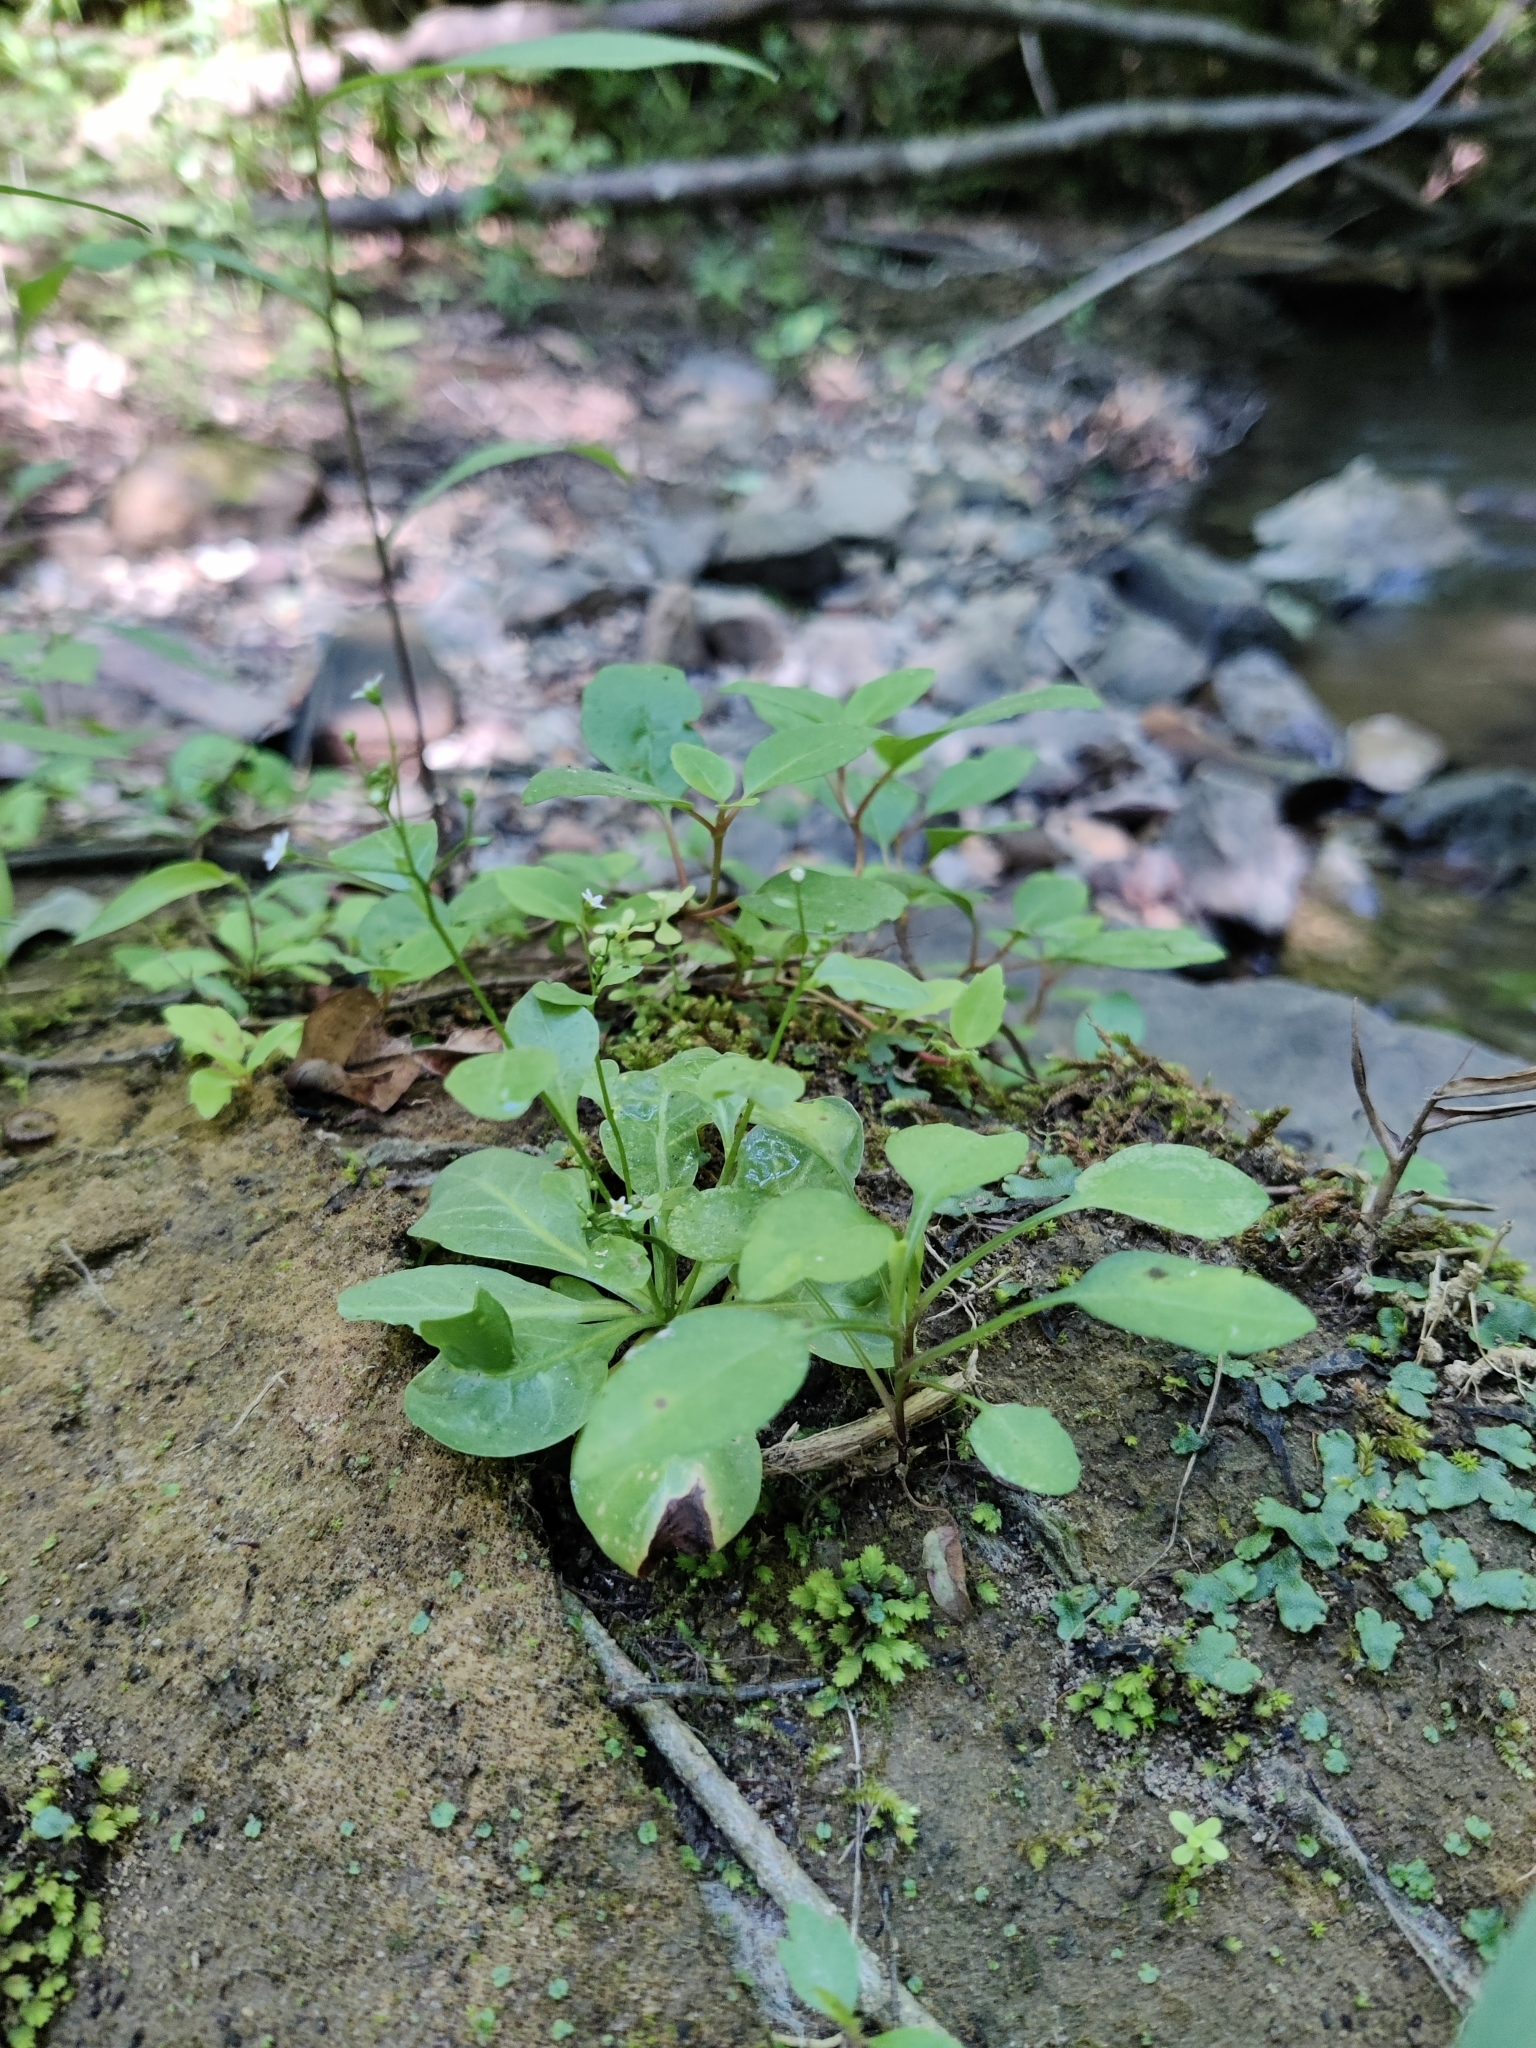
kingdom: Plantae
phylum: Tracheophyta
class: Magnoliopsida
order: Ericales
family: Primulaceae
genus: Samolus
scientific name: Samolus parviflorus
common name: False water pimpernel
